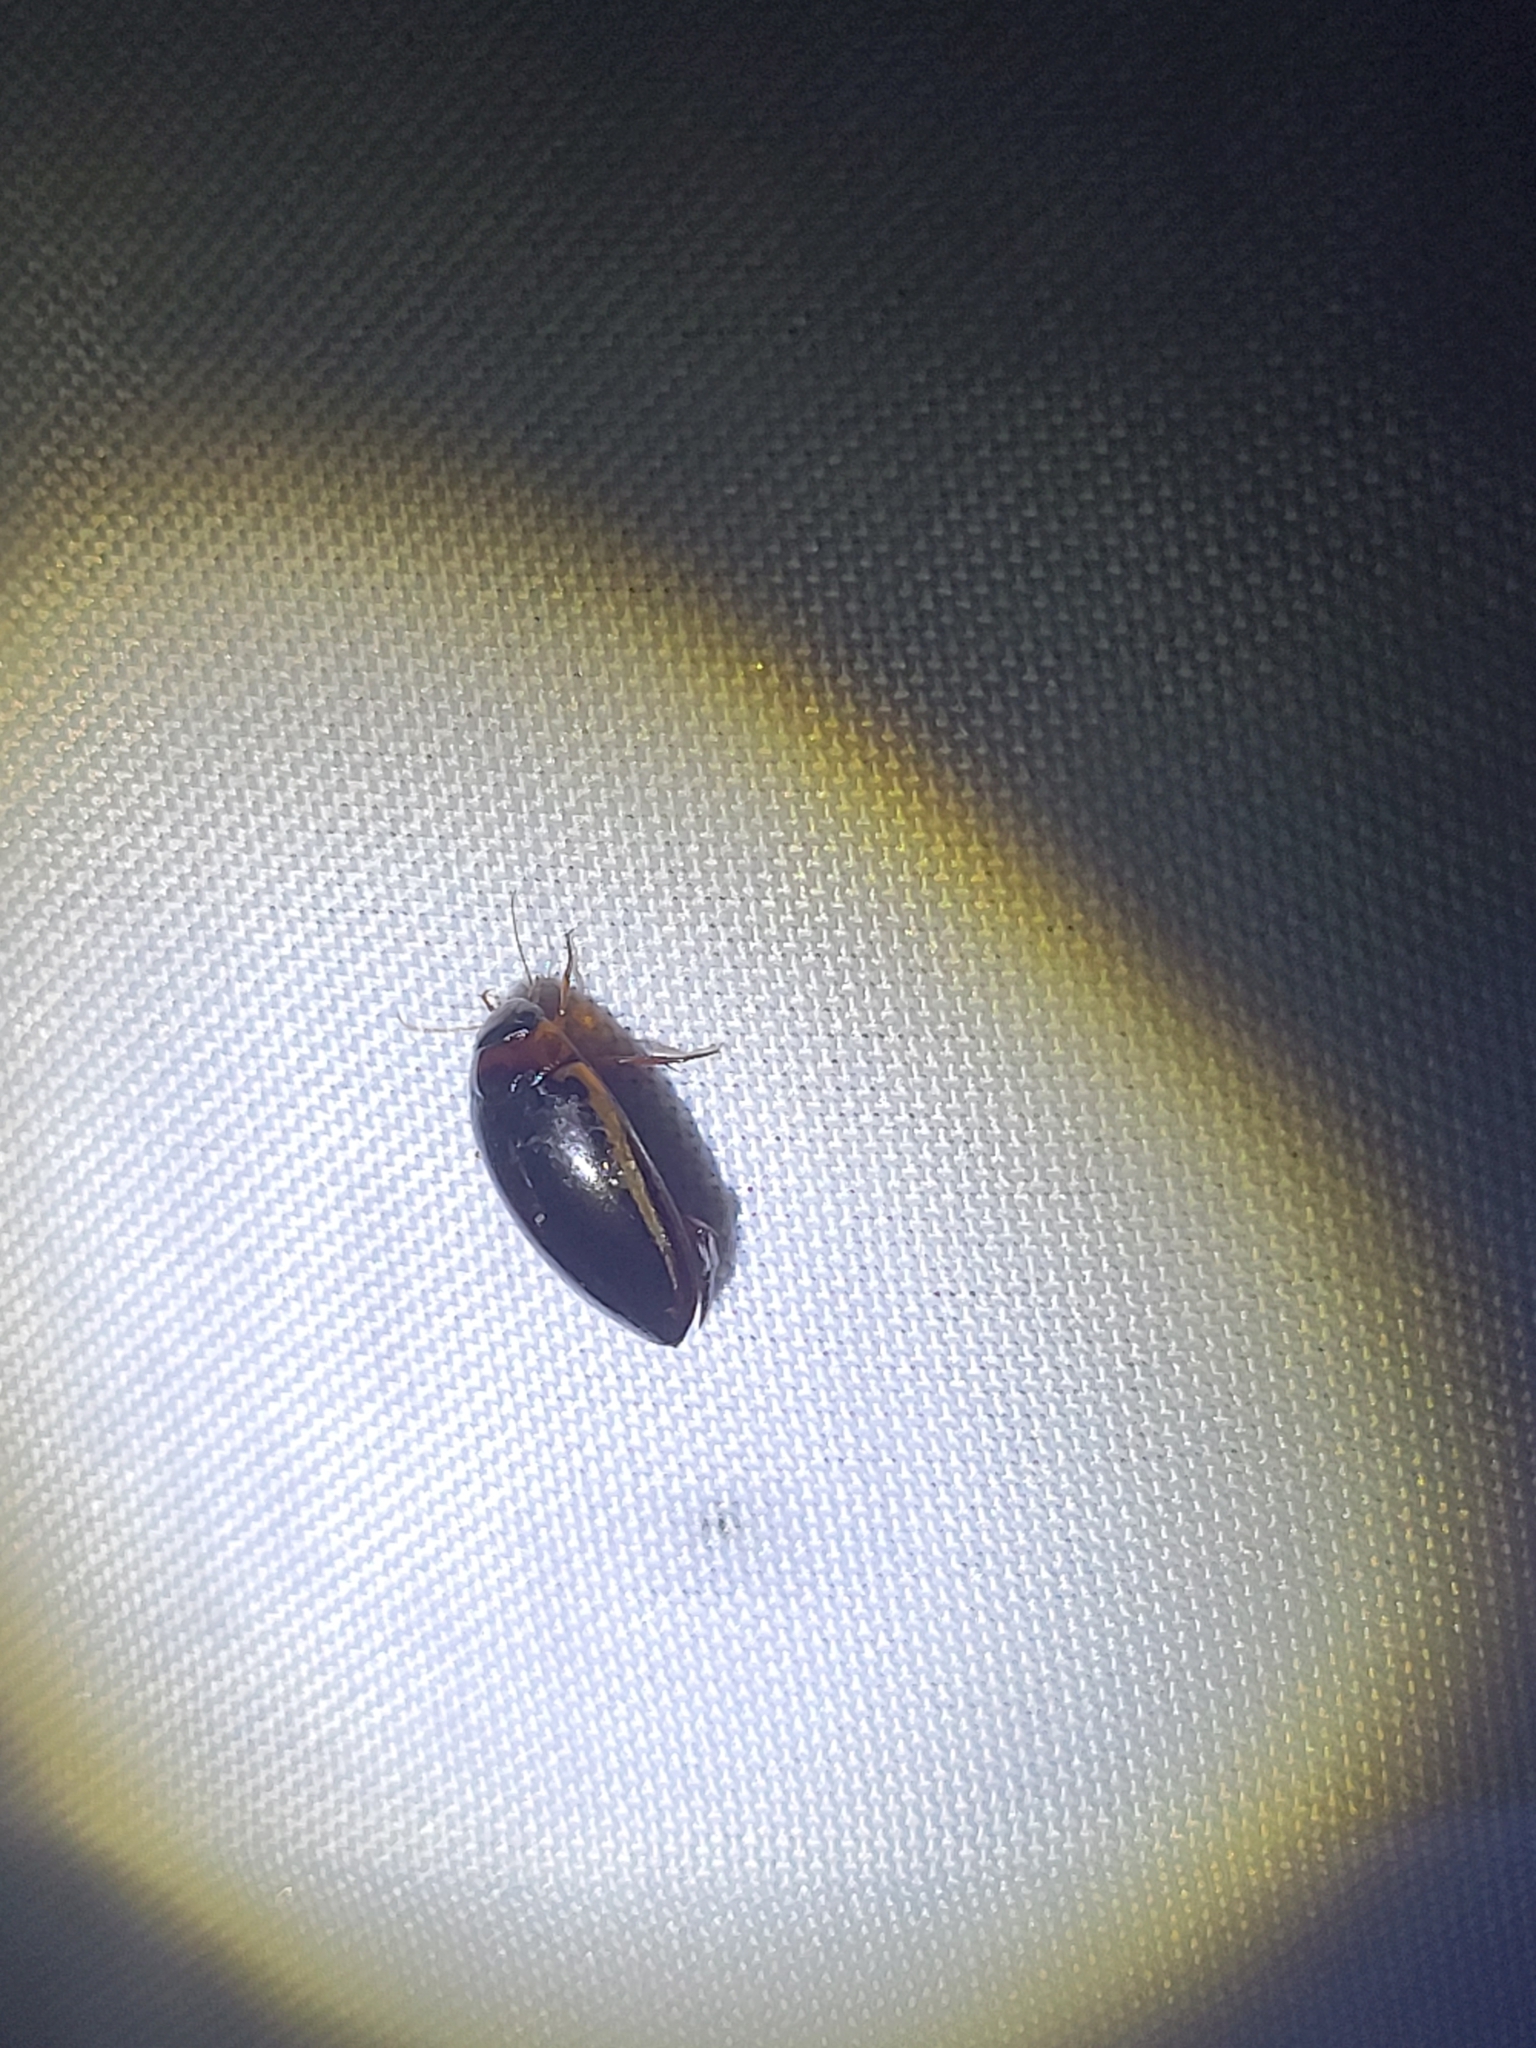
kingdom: Animalia
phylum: Arthropoda
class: Insecta
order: Coleoptera
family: Dytiscidae
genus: Hydaticus
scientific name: Hydaticus bimarginatus
